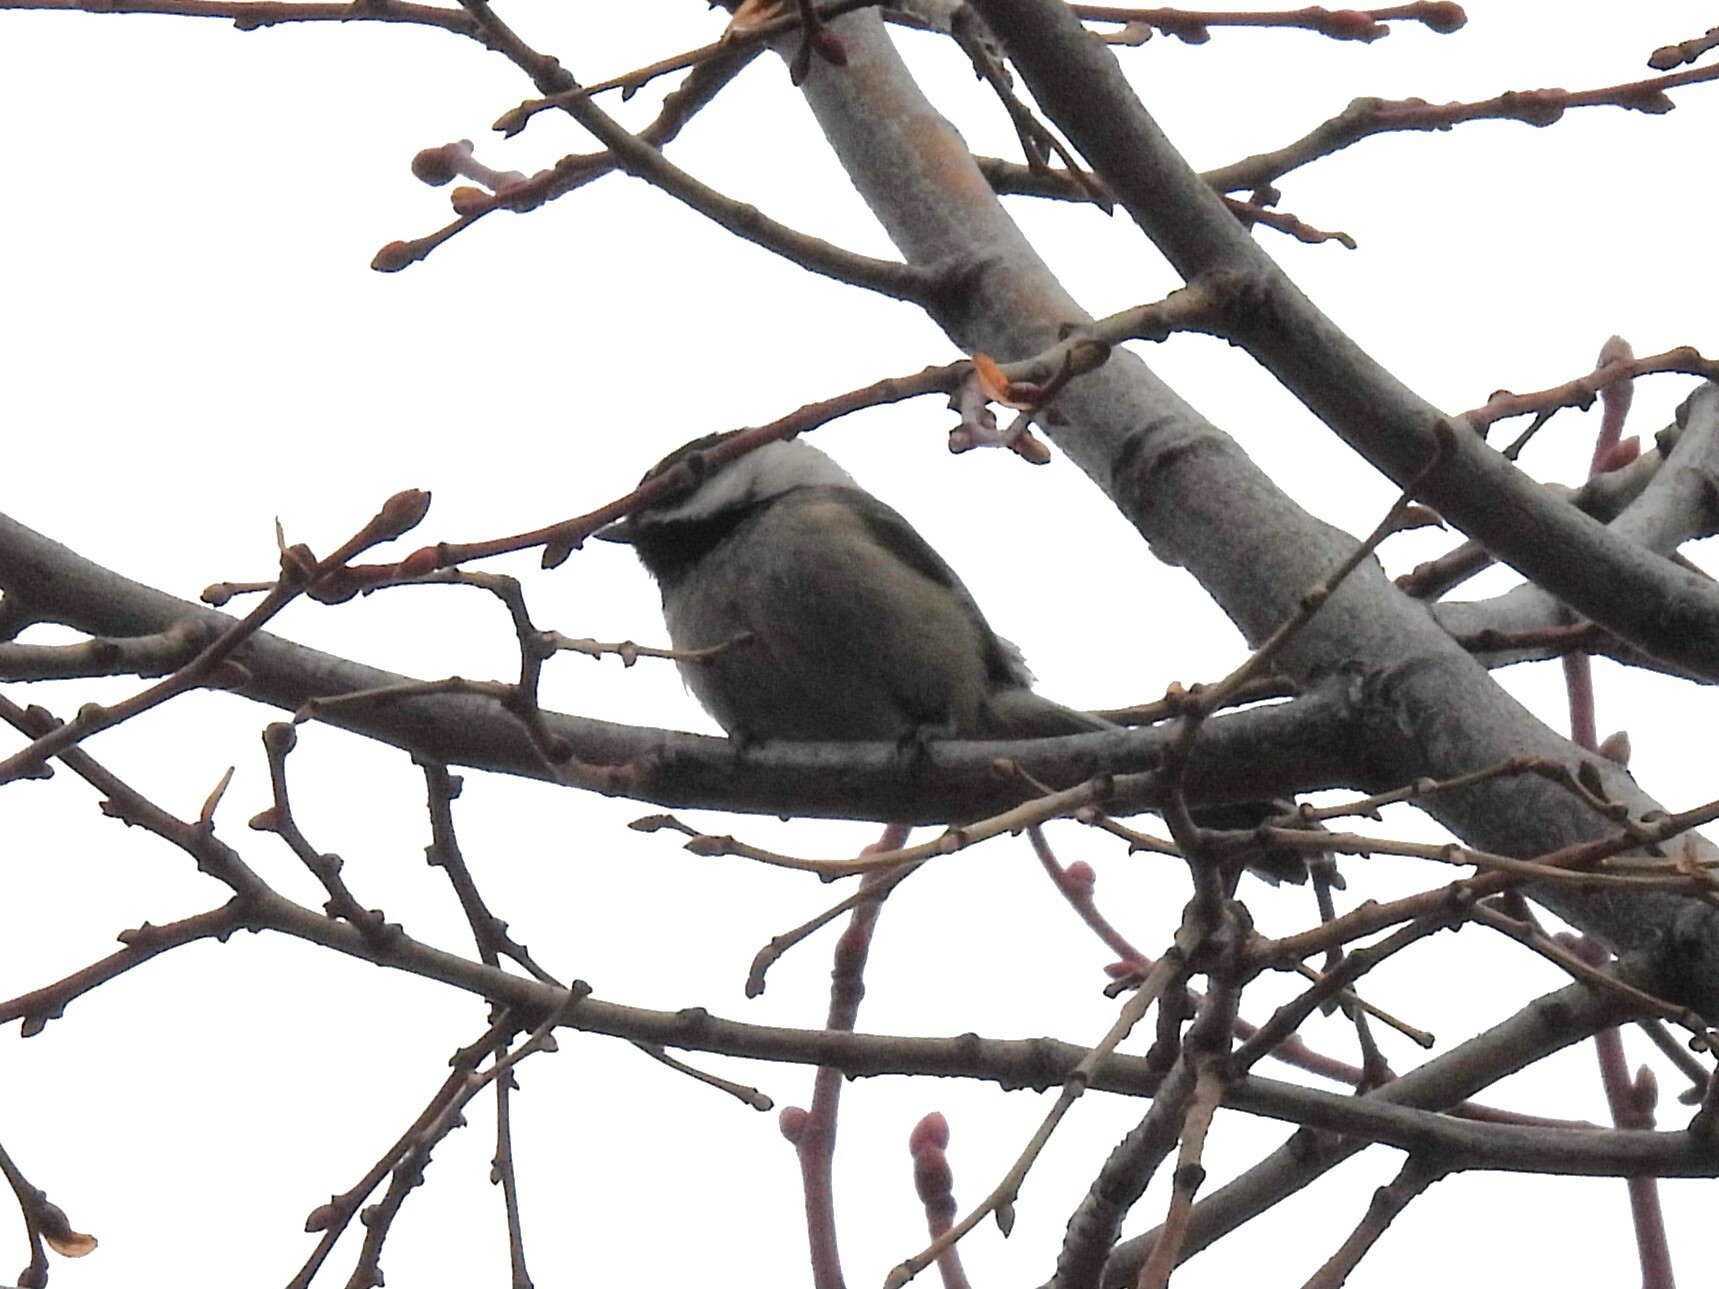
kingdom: Animalia
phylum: Chordata
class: Aves
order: Passeriformes
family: Paridae
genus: Poecile
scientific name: Poecile atricapillus
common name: Black-capped chickadee
